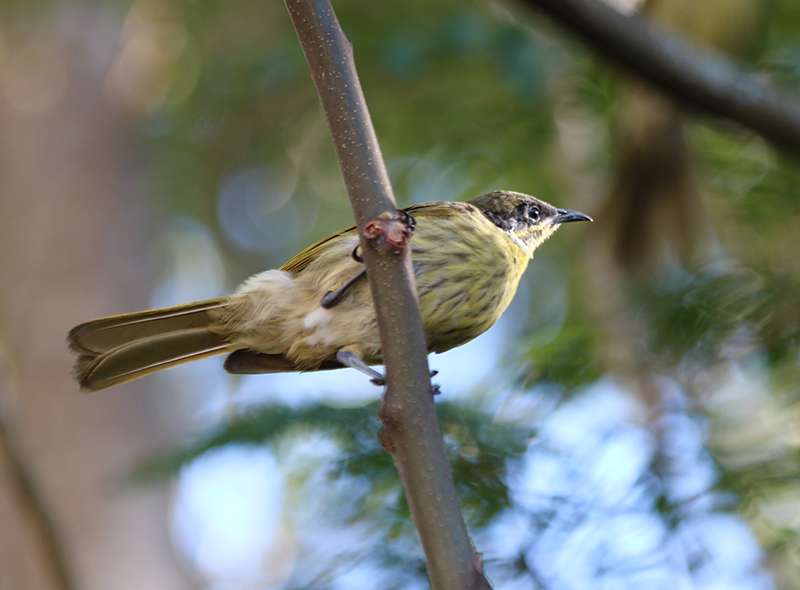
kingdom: Animalia
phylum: Chordata
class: Aves
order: Passeriformes
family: Meliphagidae
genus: Gavicalis
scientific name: Gavicalis versicolor
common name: Varied honeyeater
